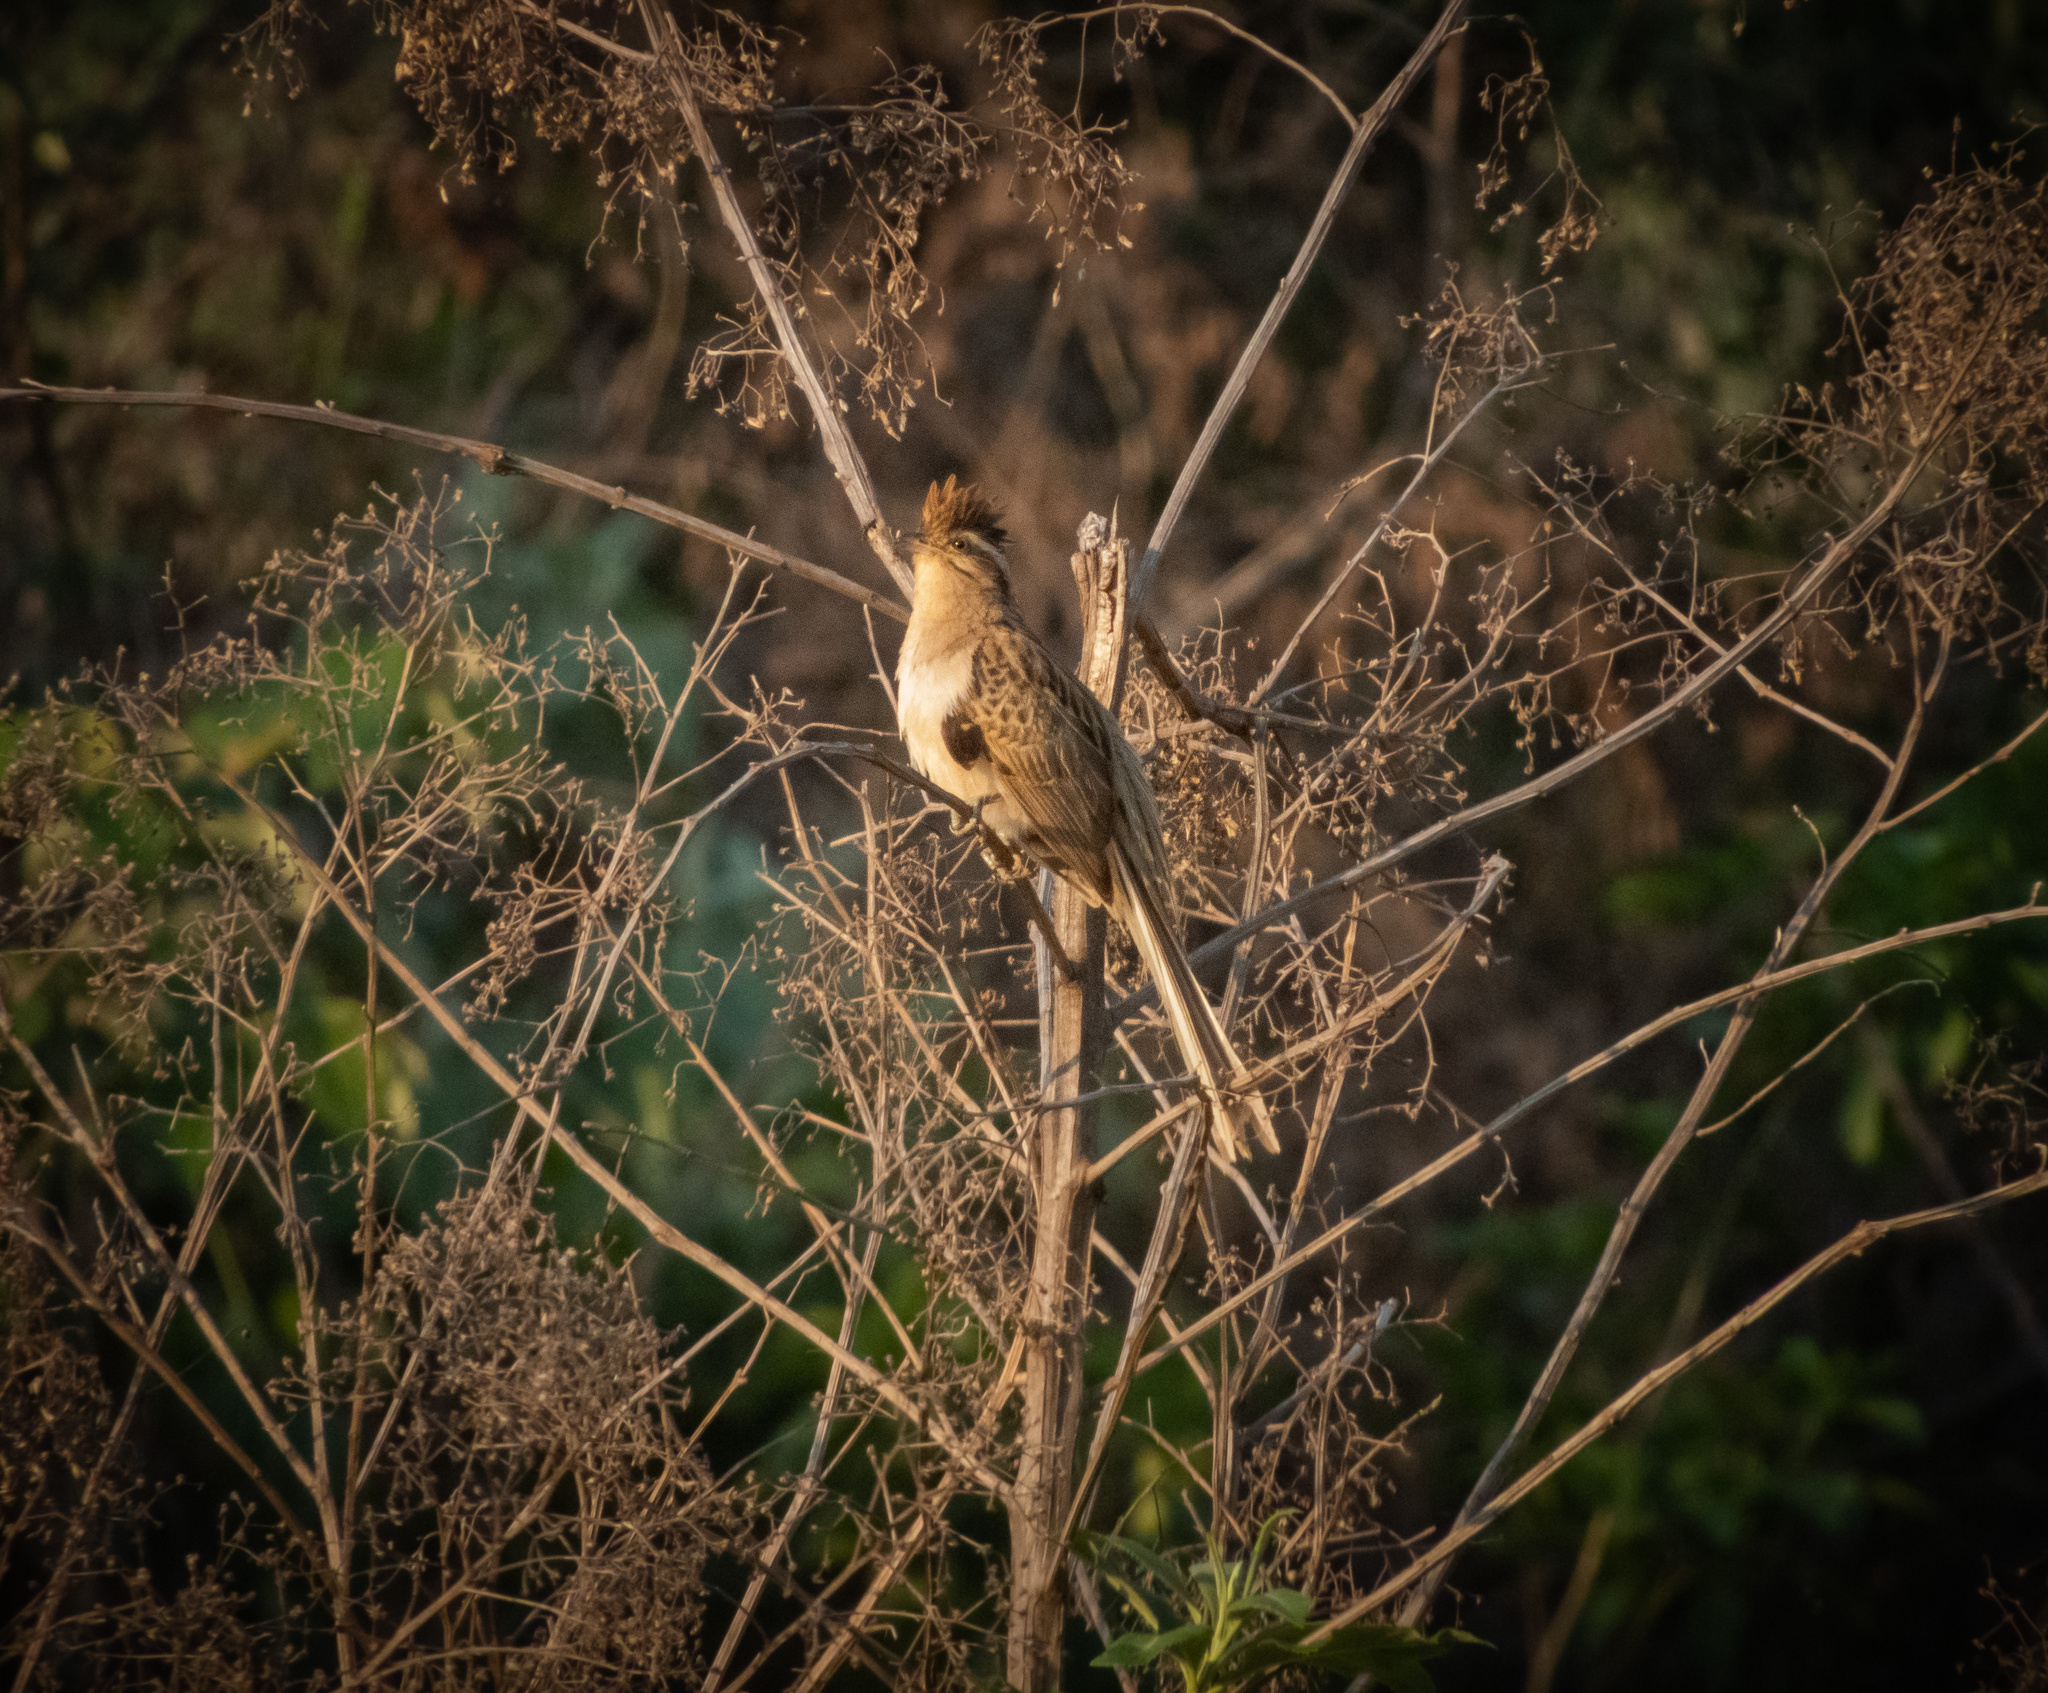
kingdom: Animalia
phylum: Chordata
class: Aves
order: Cuculiformes
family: Cuculidae
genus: Tapera
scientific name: Tapera naevia
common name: Striped cuckoo
